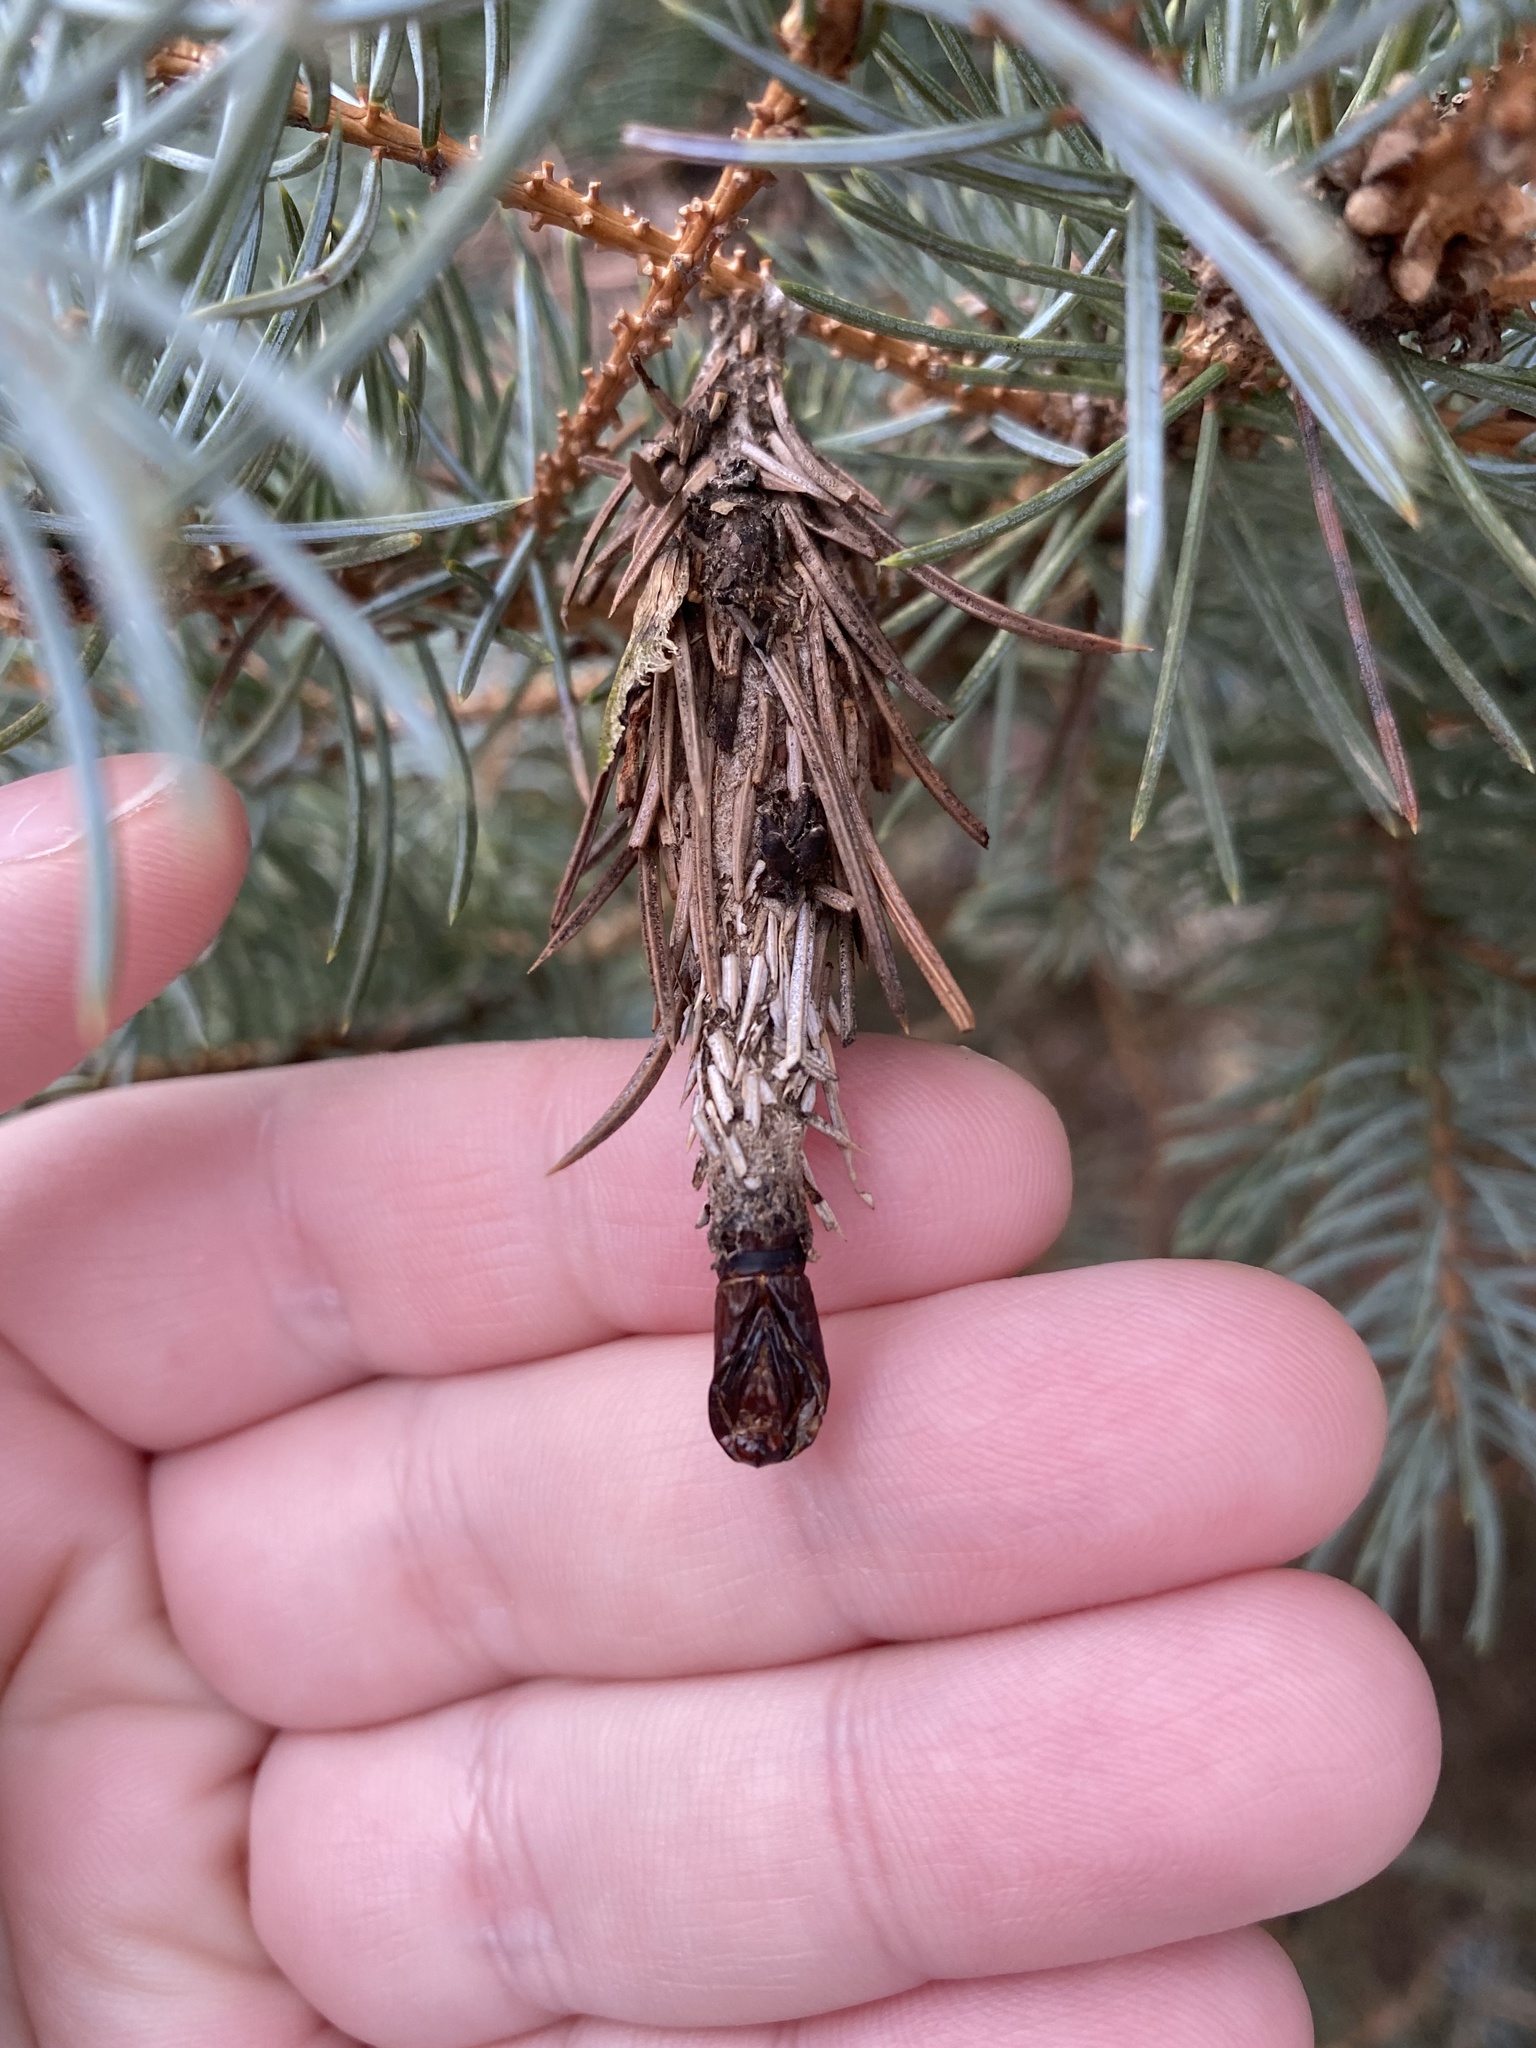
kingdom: Animalia
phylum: Arthropoda
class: Insecta
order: Lepidoptera
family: Psychidae
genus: Thyridopteryx
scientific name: Thyridopteryx ephemeraeformis
